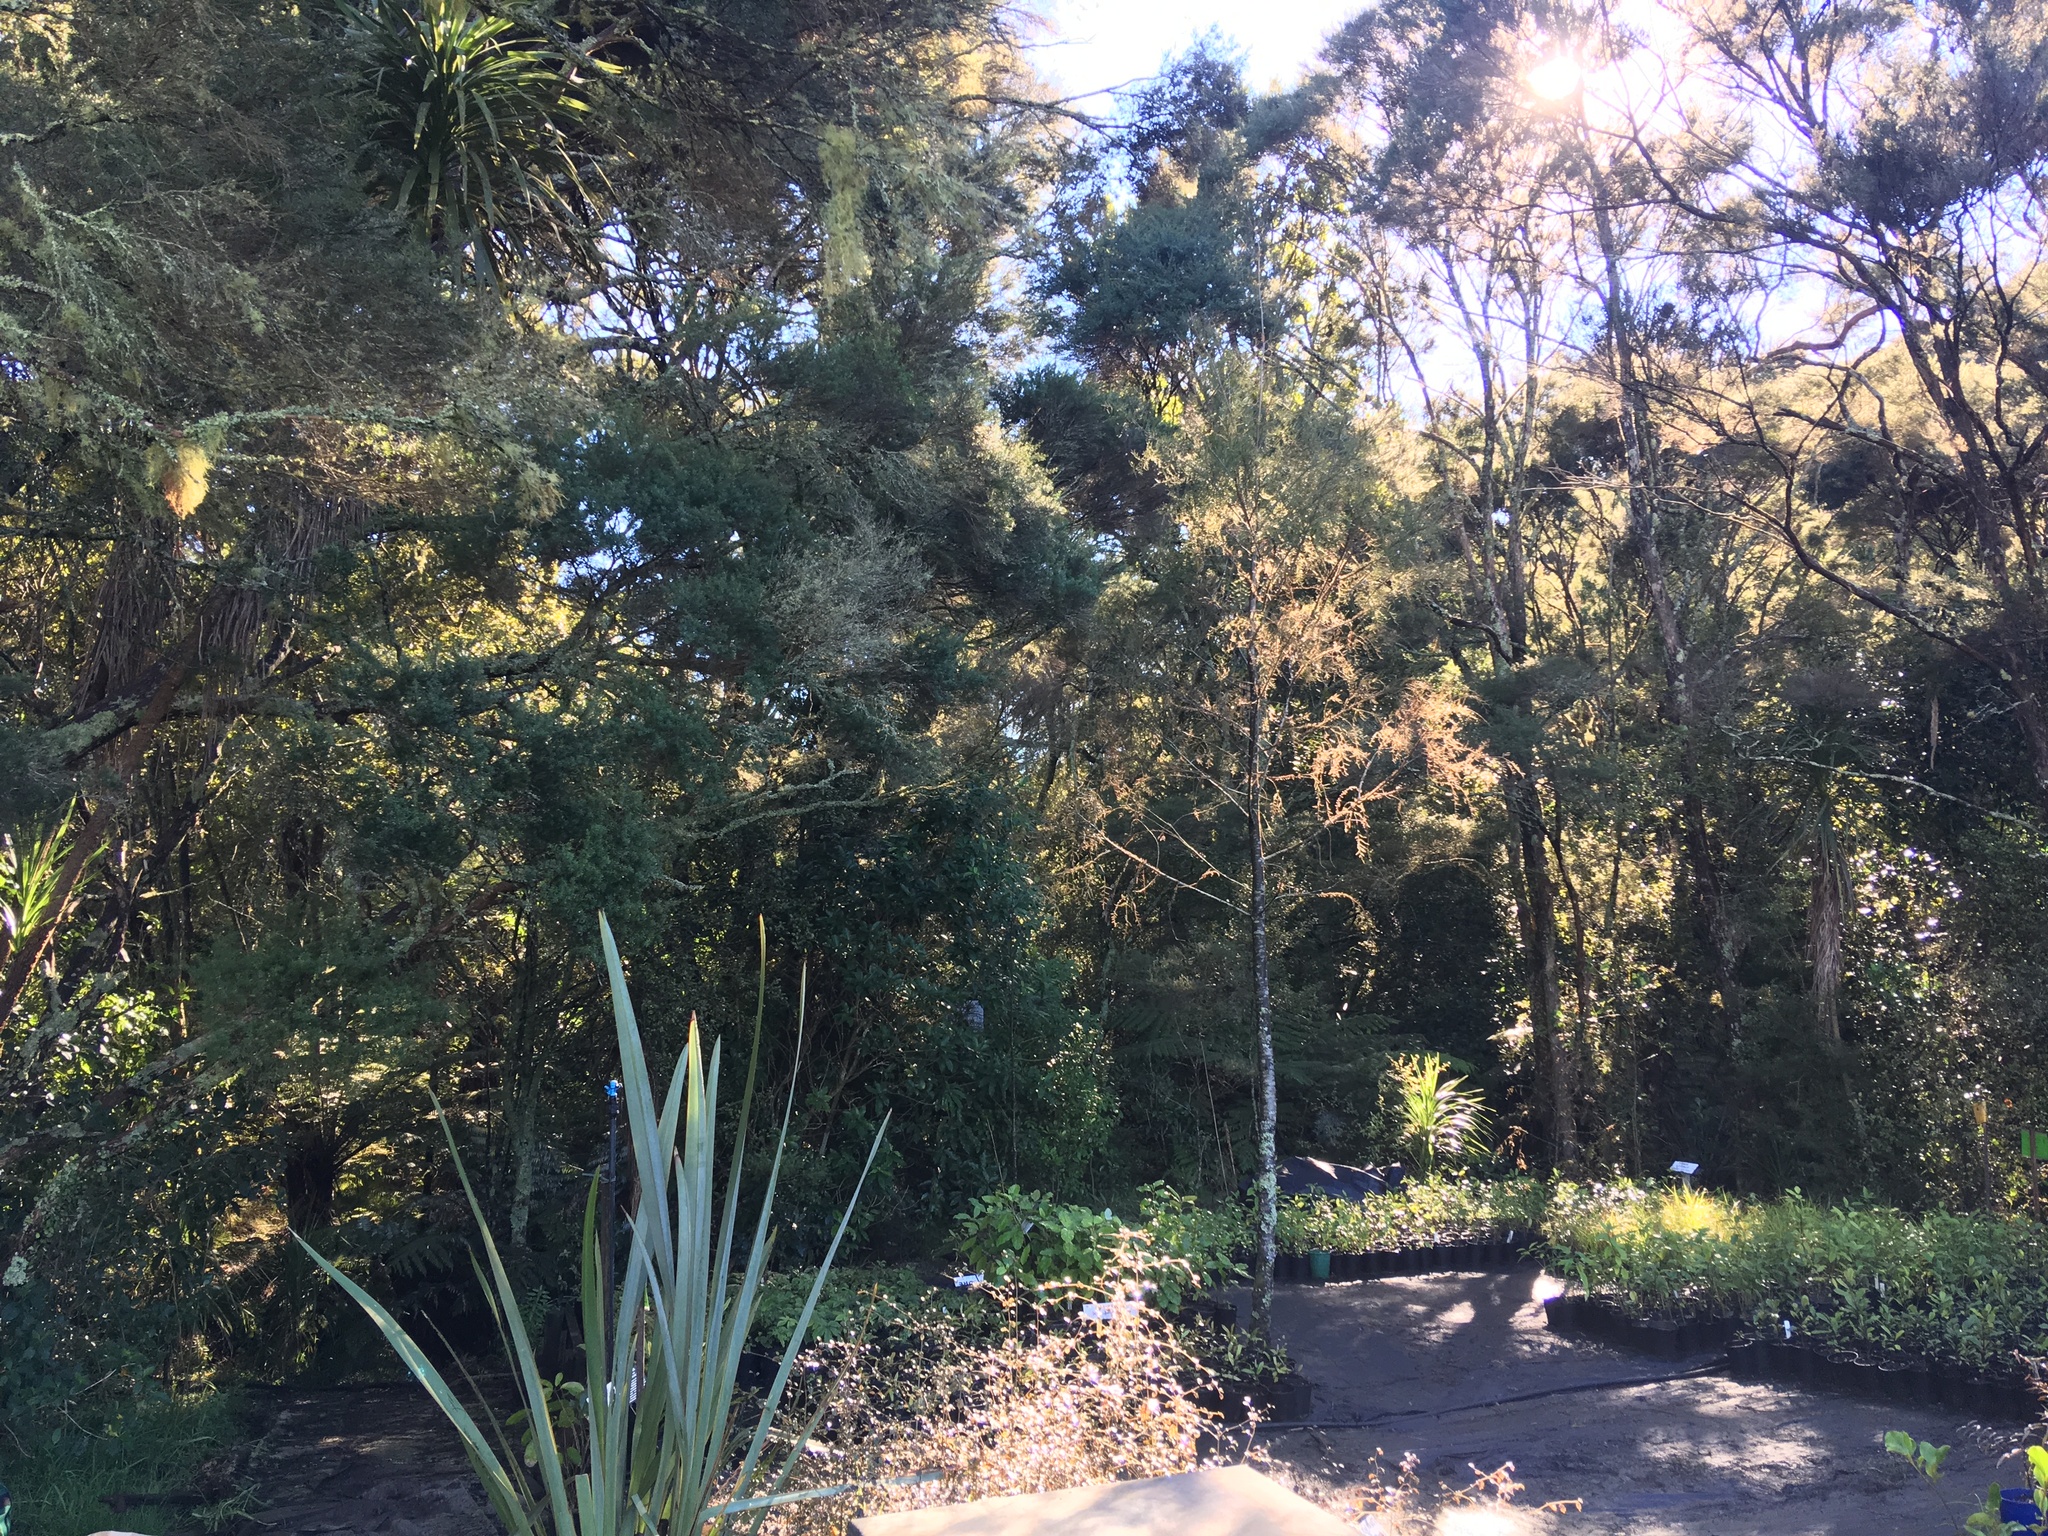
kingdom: Plantae
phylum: Tracheophyta
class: Pinopsida
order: Pinales
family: Podocarpaceae
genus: Dacrycarpus
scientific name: Dacrycarpus dacrydioides
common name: White pine
